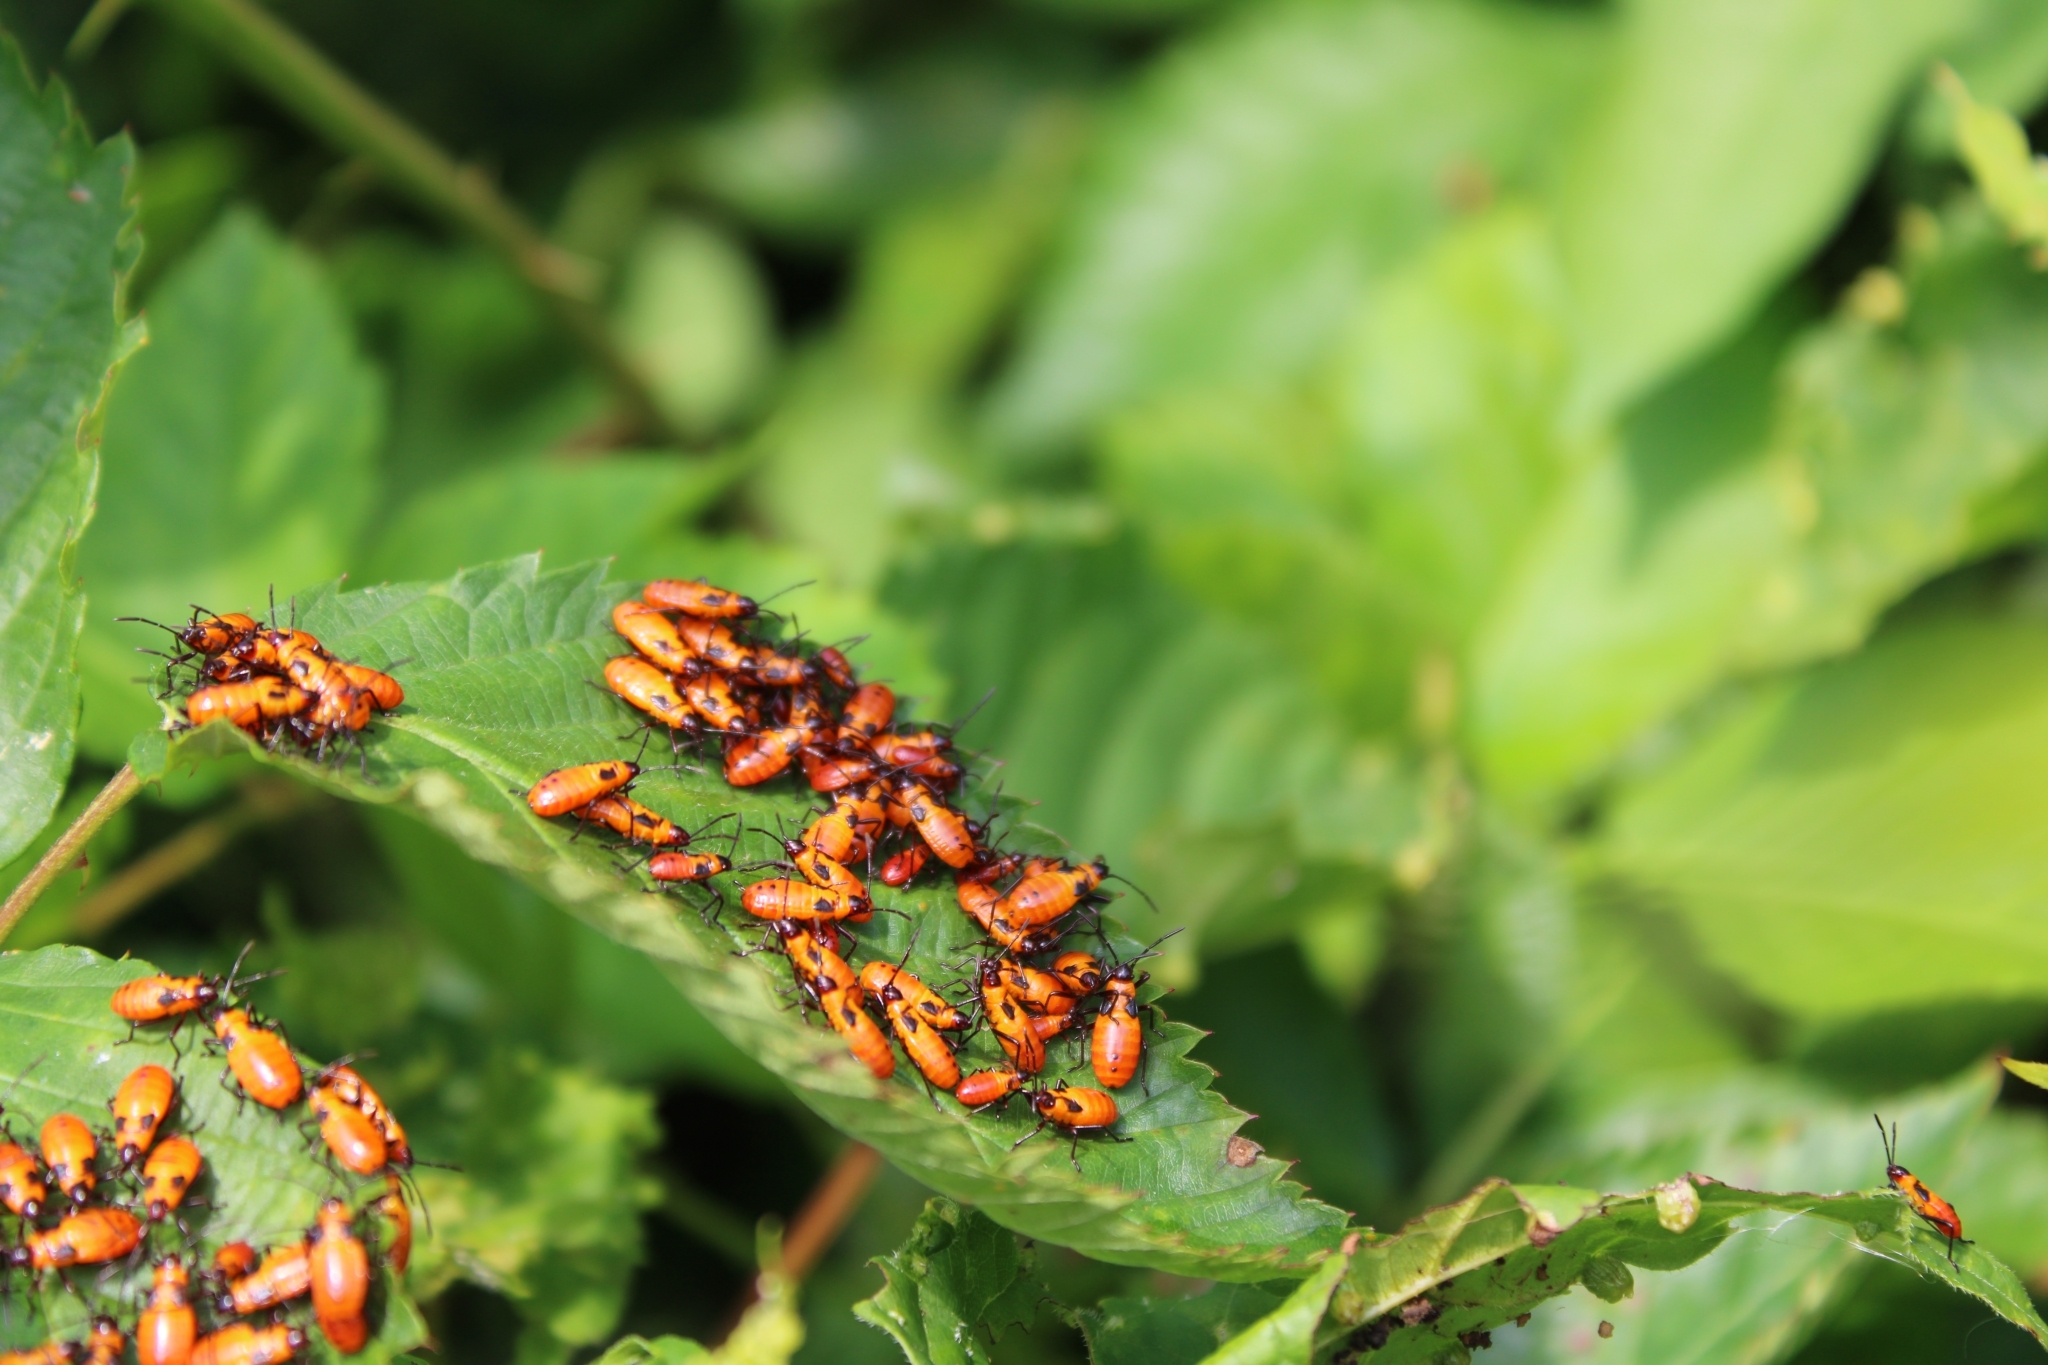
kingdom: Animalia
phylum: Arthropoda
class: Insecta
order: Hemiptera
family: Lygaeidae
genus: Oncopeltus
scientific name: Oncopeltus fasciatus
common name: Large milkweed bug
